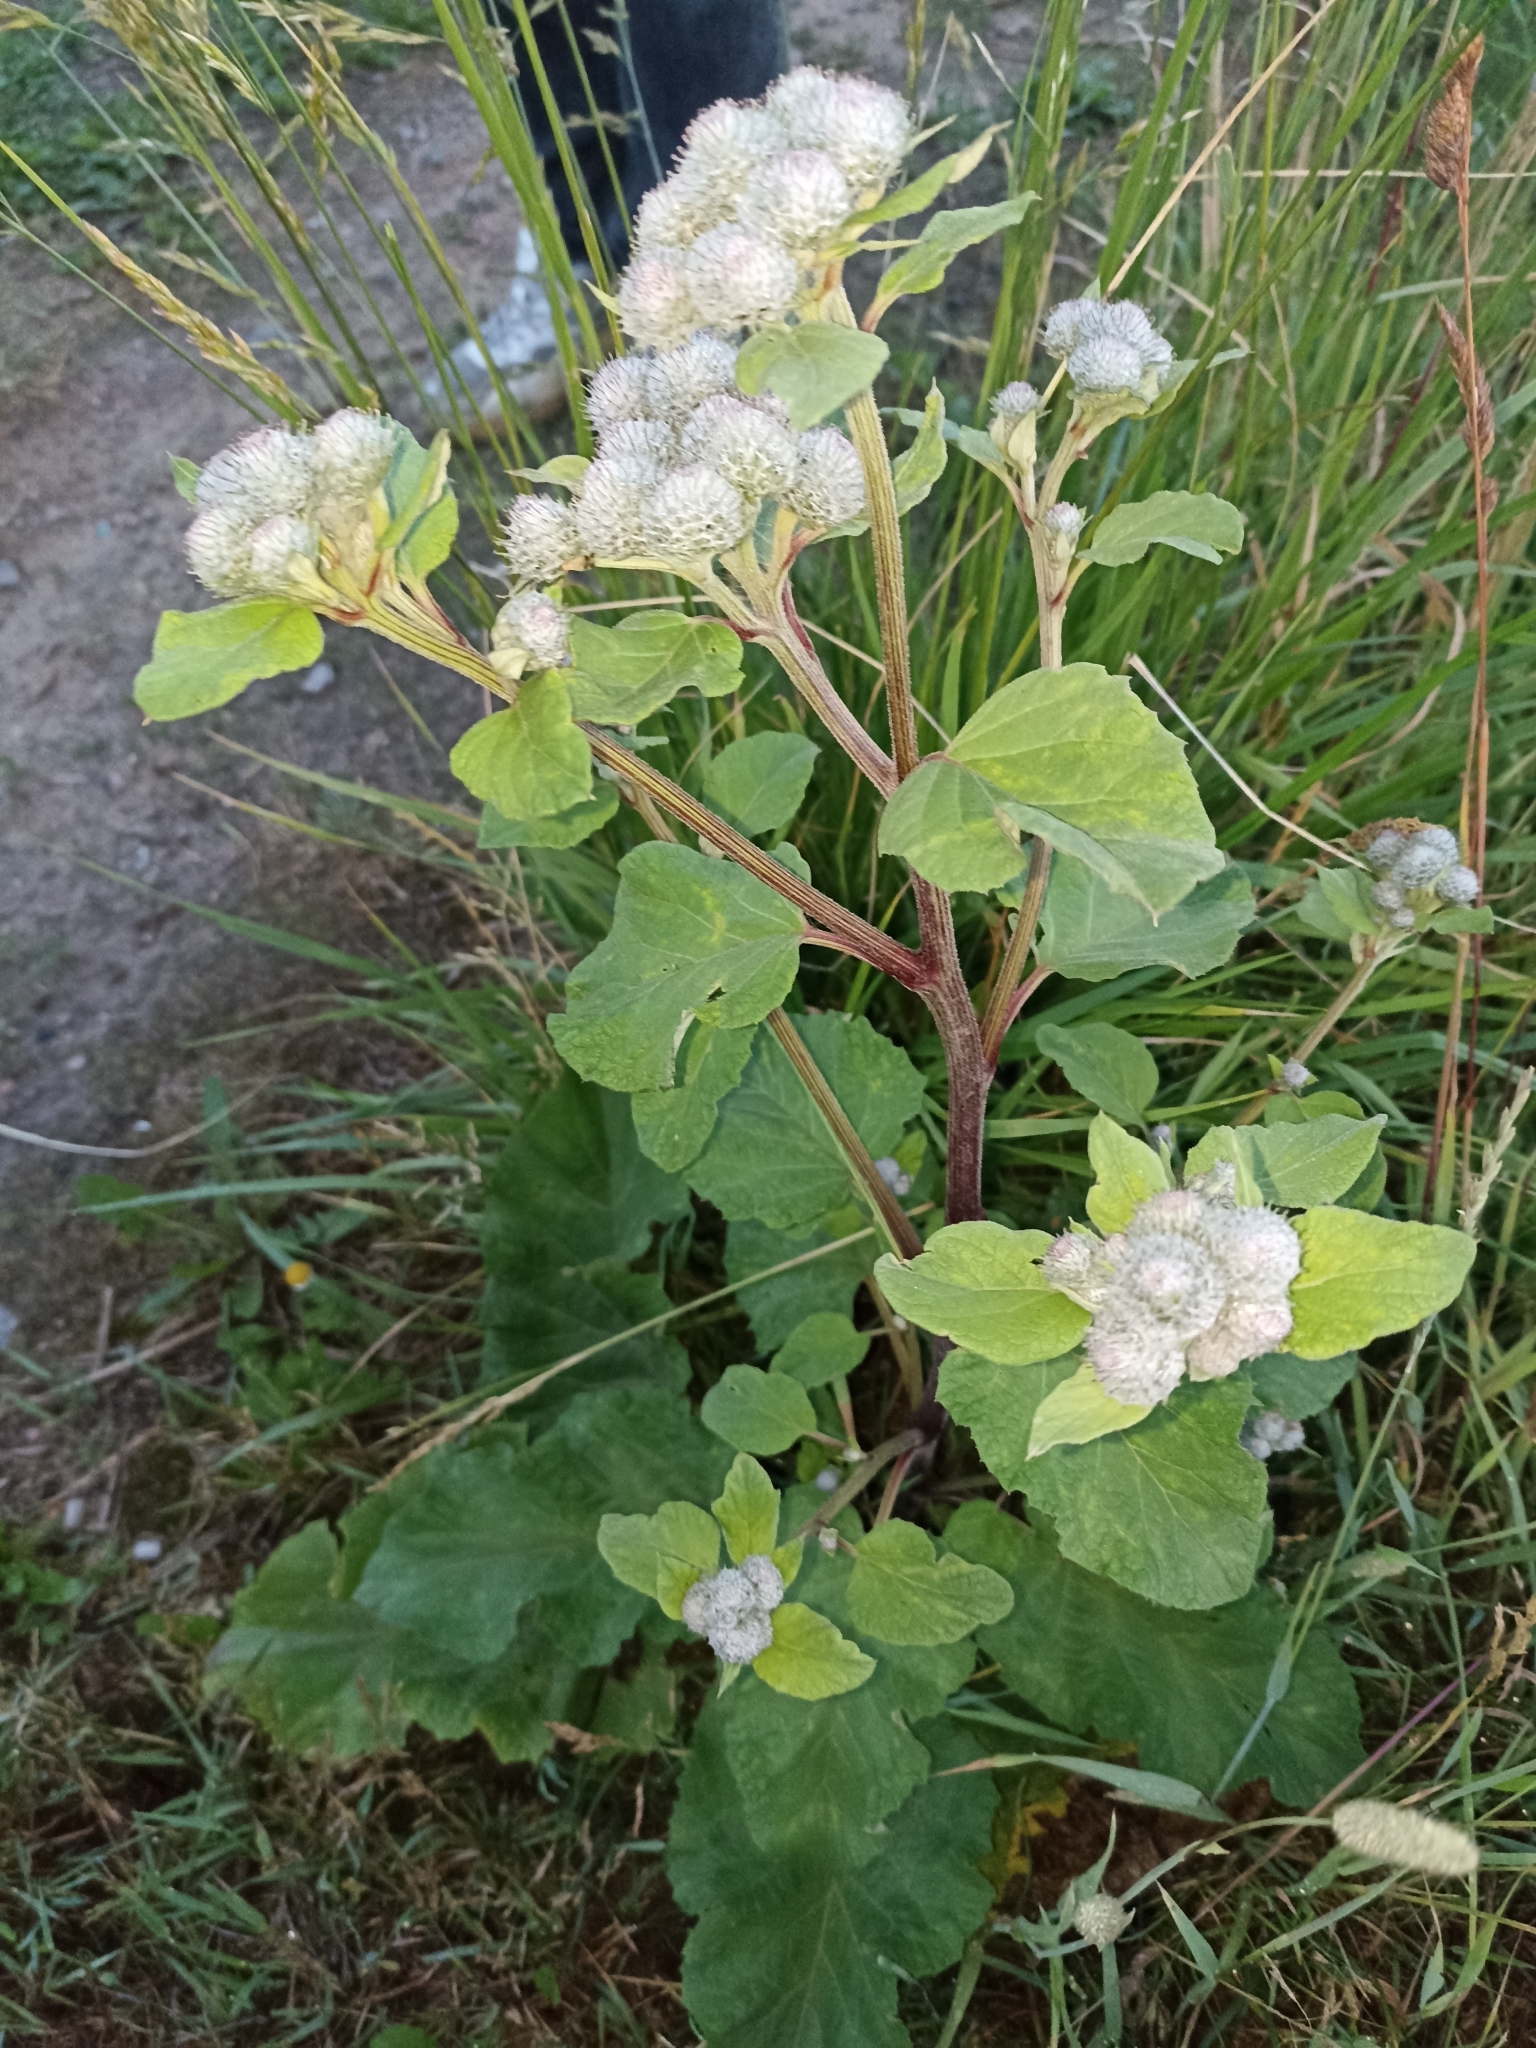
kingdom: Plantae
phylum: Tracheophyta
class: Magnoliopsida
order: Asterales
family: Asteraceae
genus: Arctium
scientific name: Arctium tomentosum
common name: Woolly burdock
